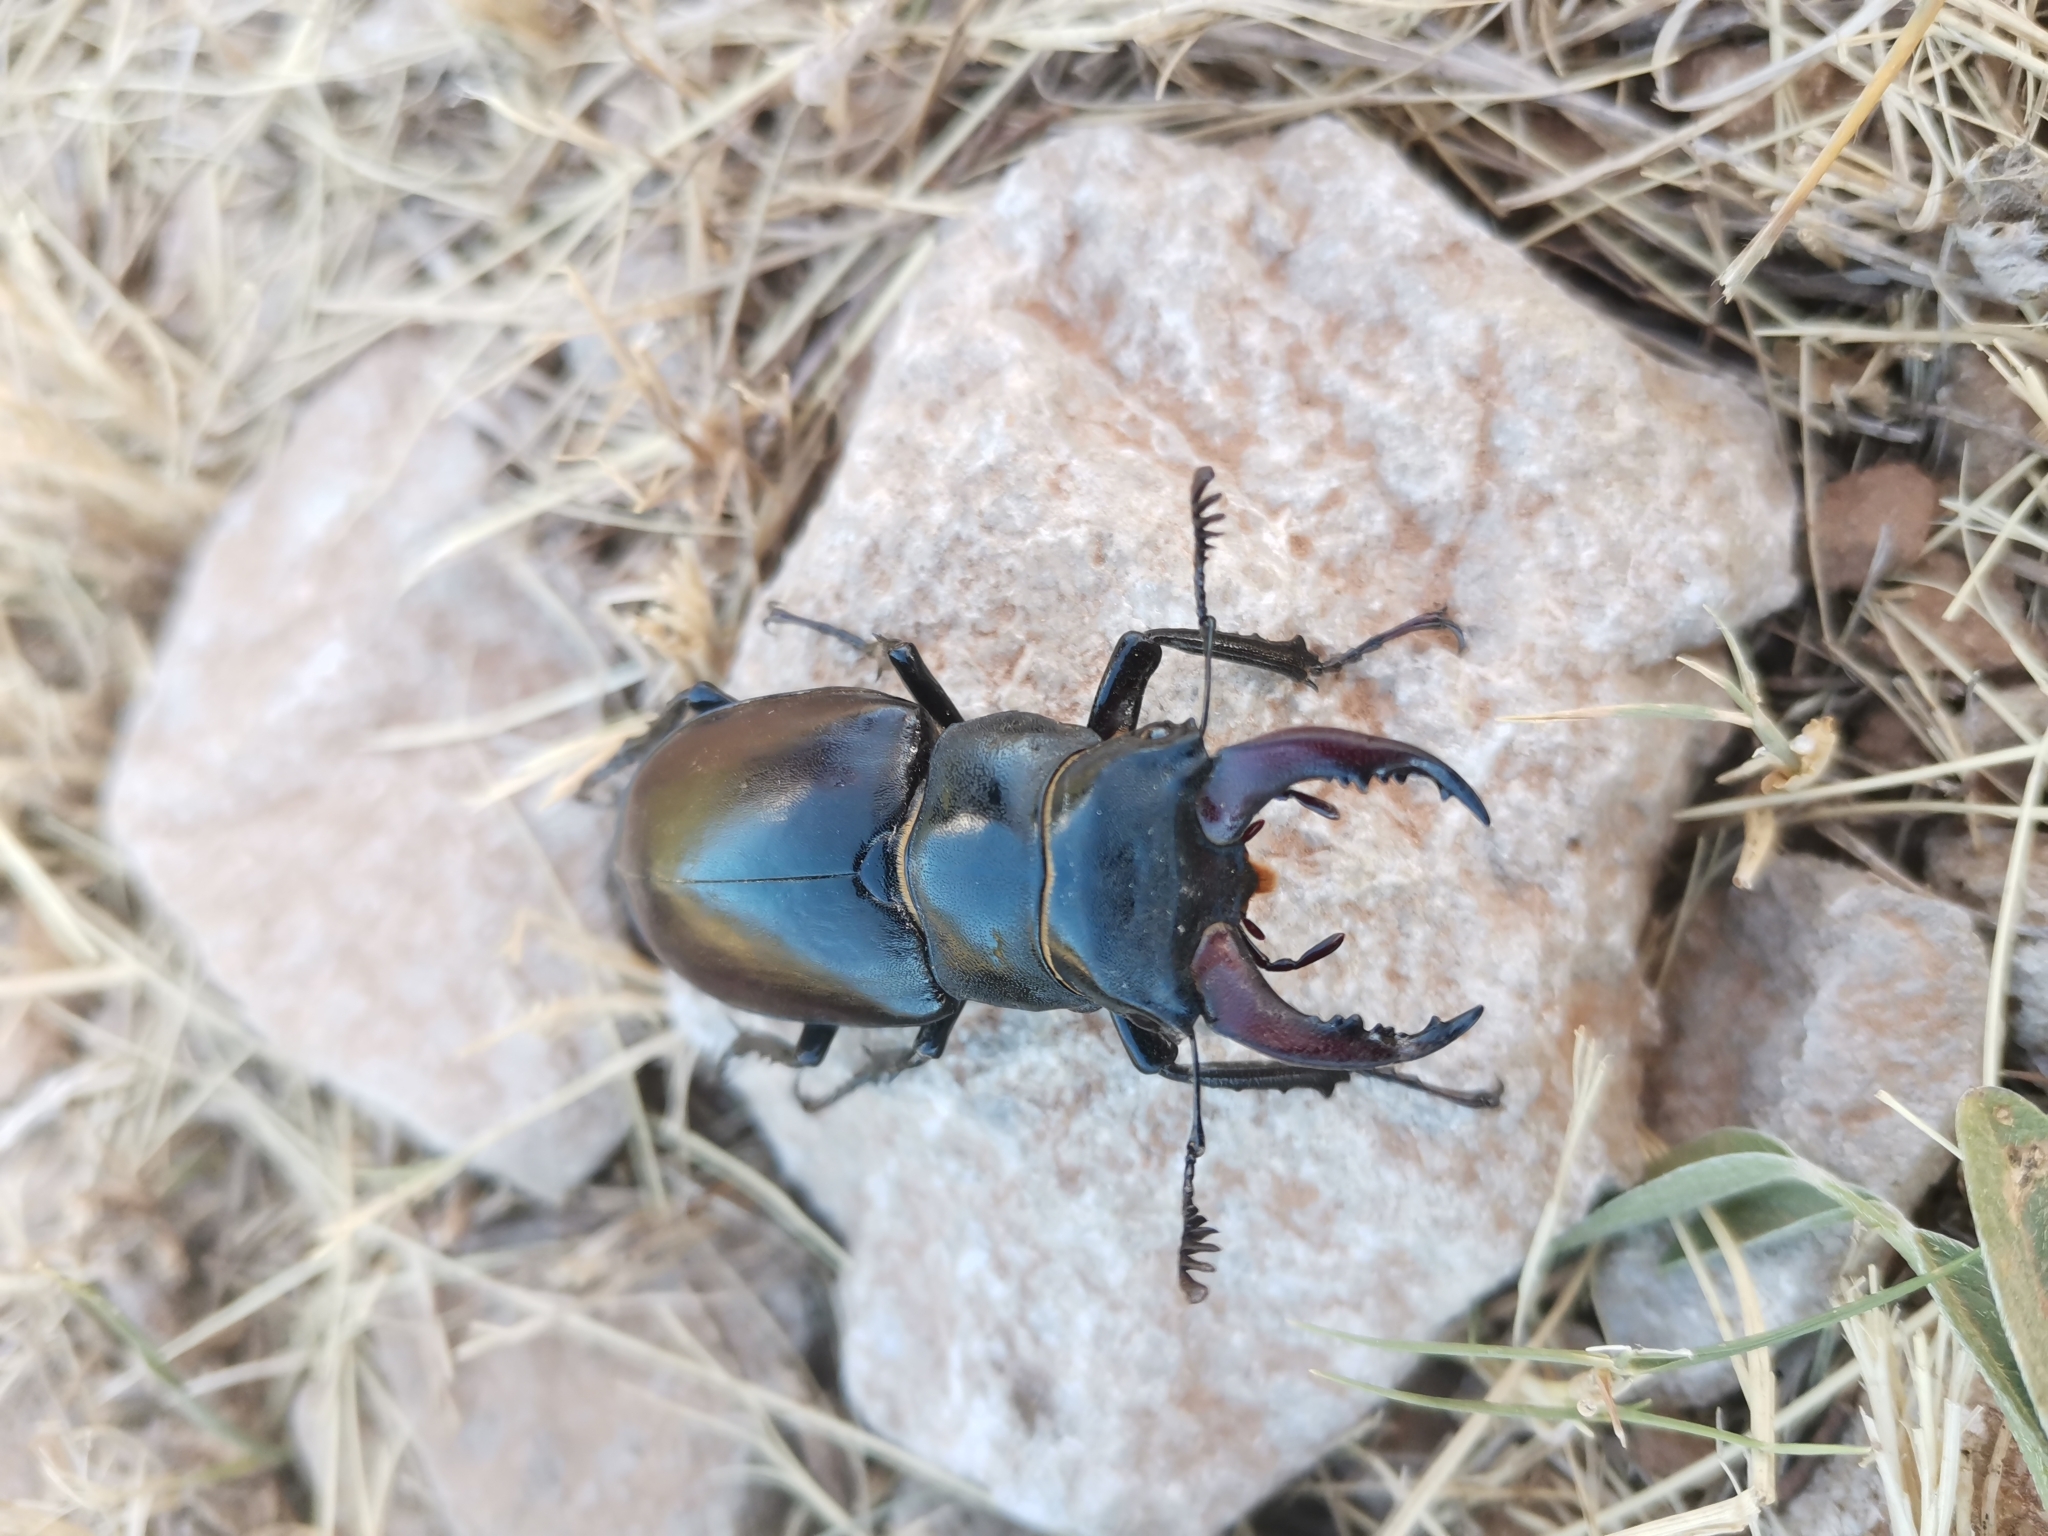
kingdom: Animalia
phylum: Arthropoda
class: Insecta
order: Coleoptera
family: Lucanidae
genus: Lucanus
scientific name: Lucanus cervus
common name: Stag beetle
